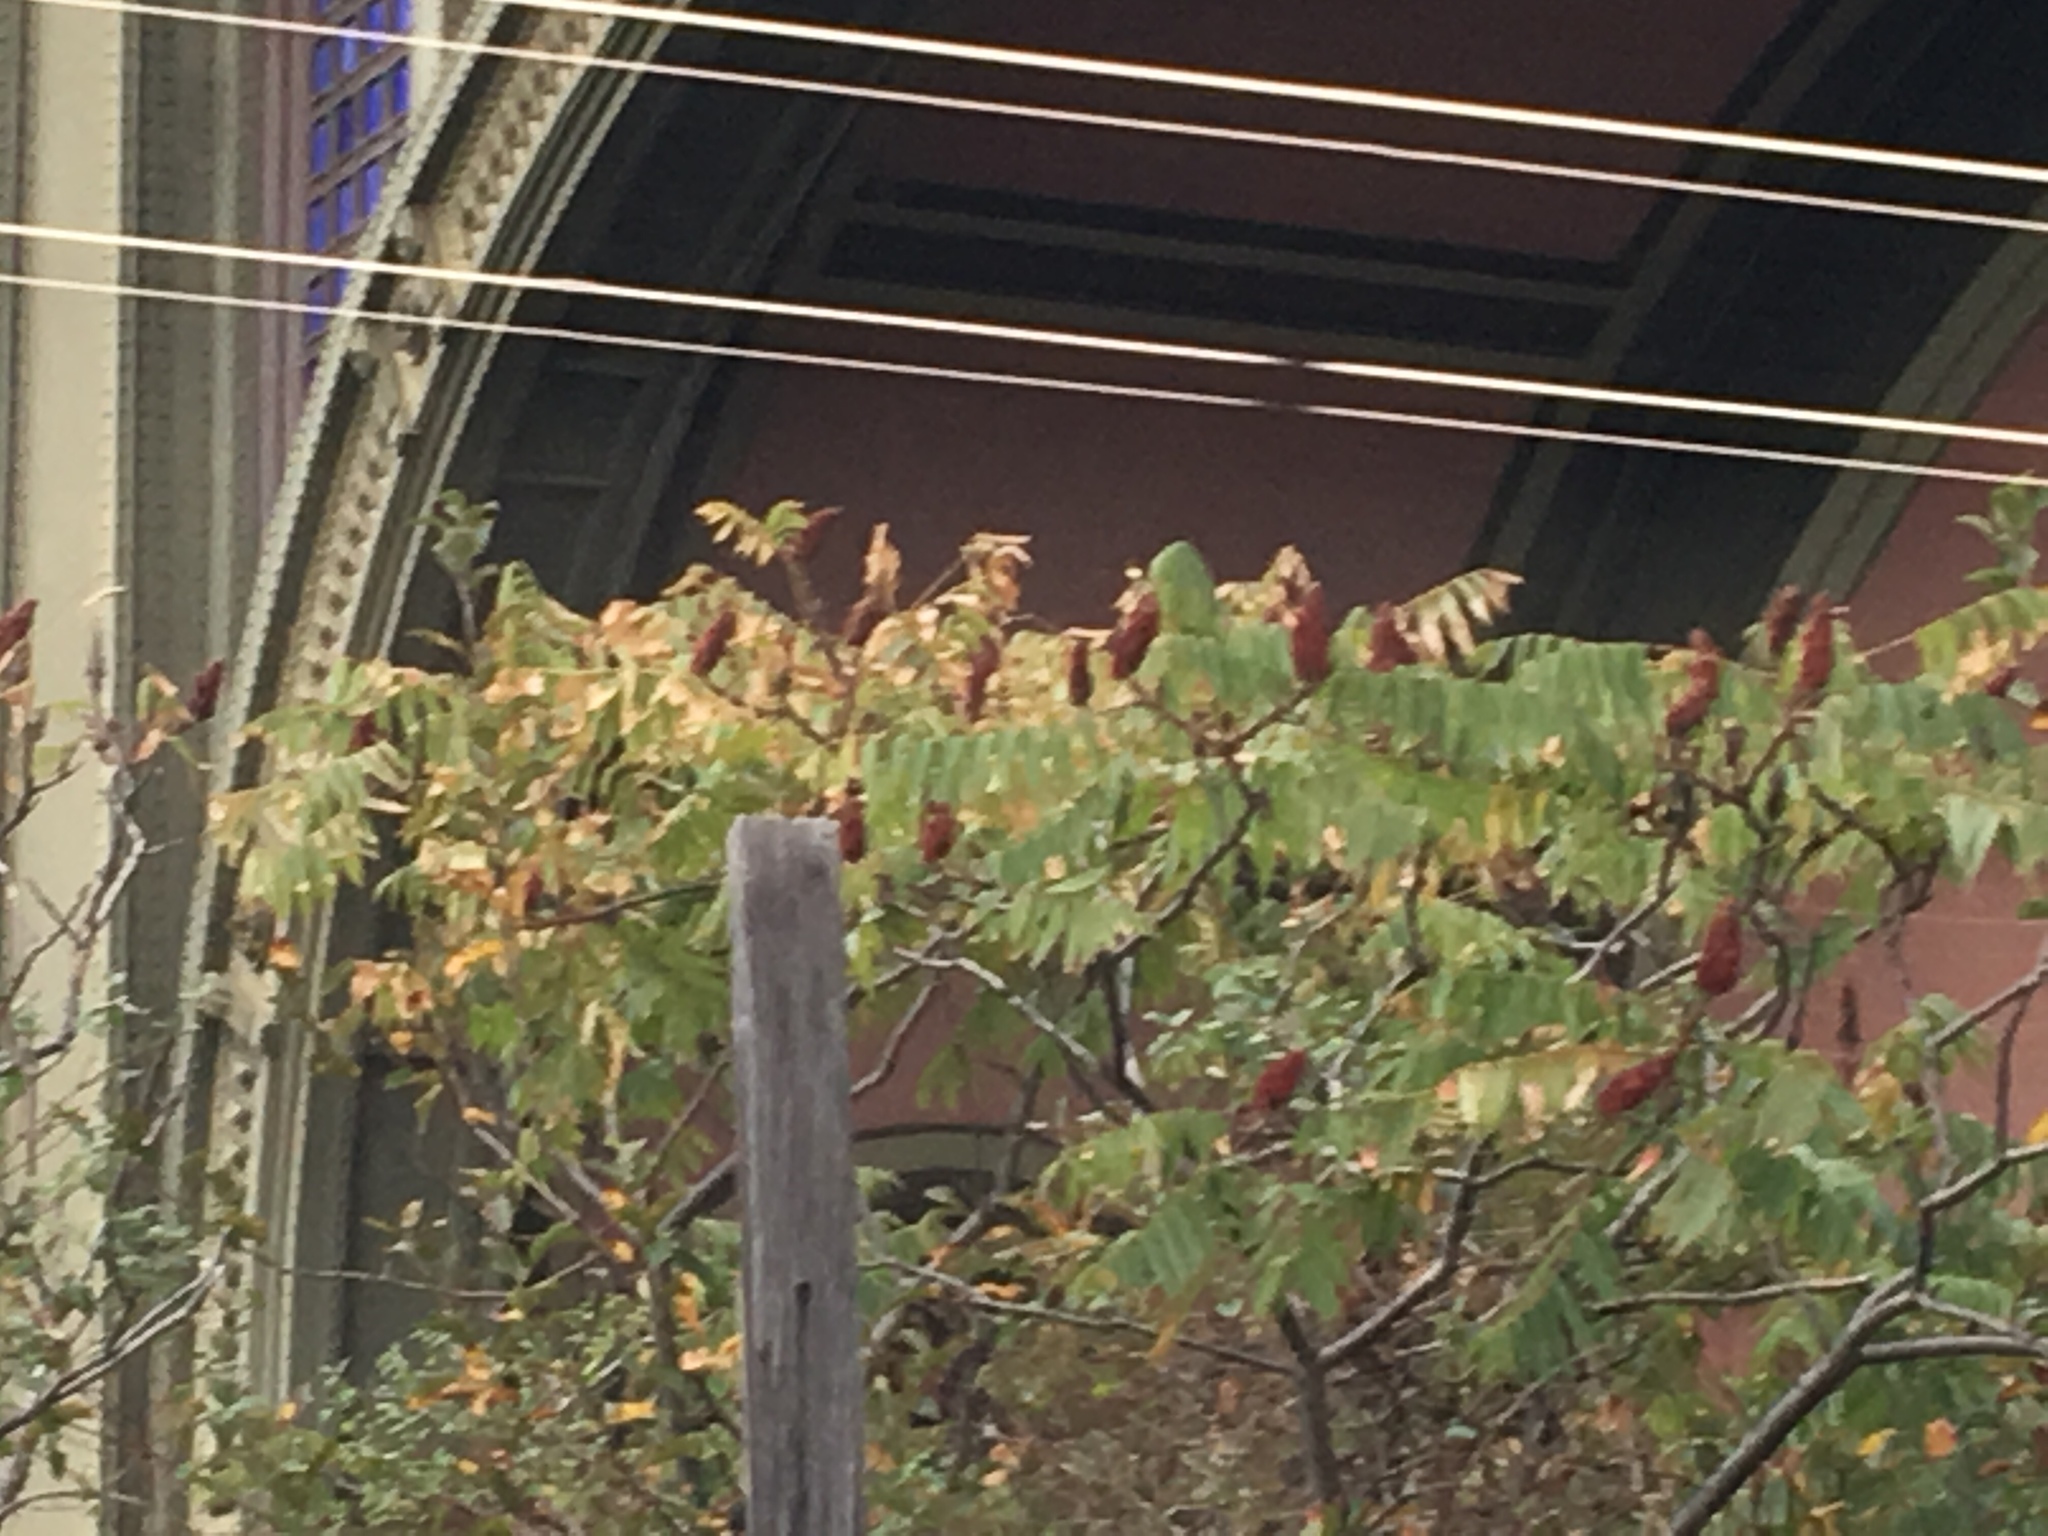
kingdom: Plantae
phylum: Tracheophyta
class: Magnoliopsida
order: Sapindales
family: Anacardiaceae
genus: Rhus
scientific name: Rhus typhina
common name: Staghorn sumac
